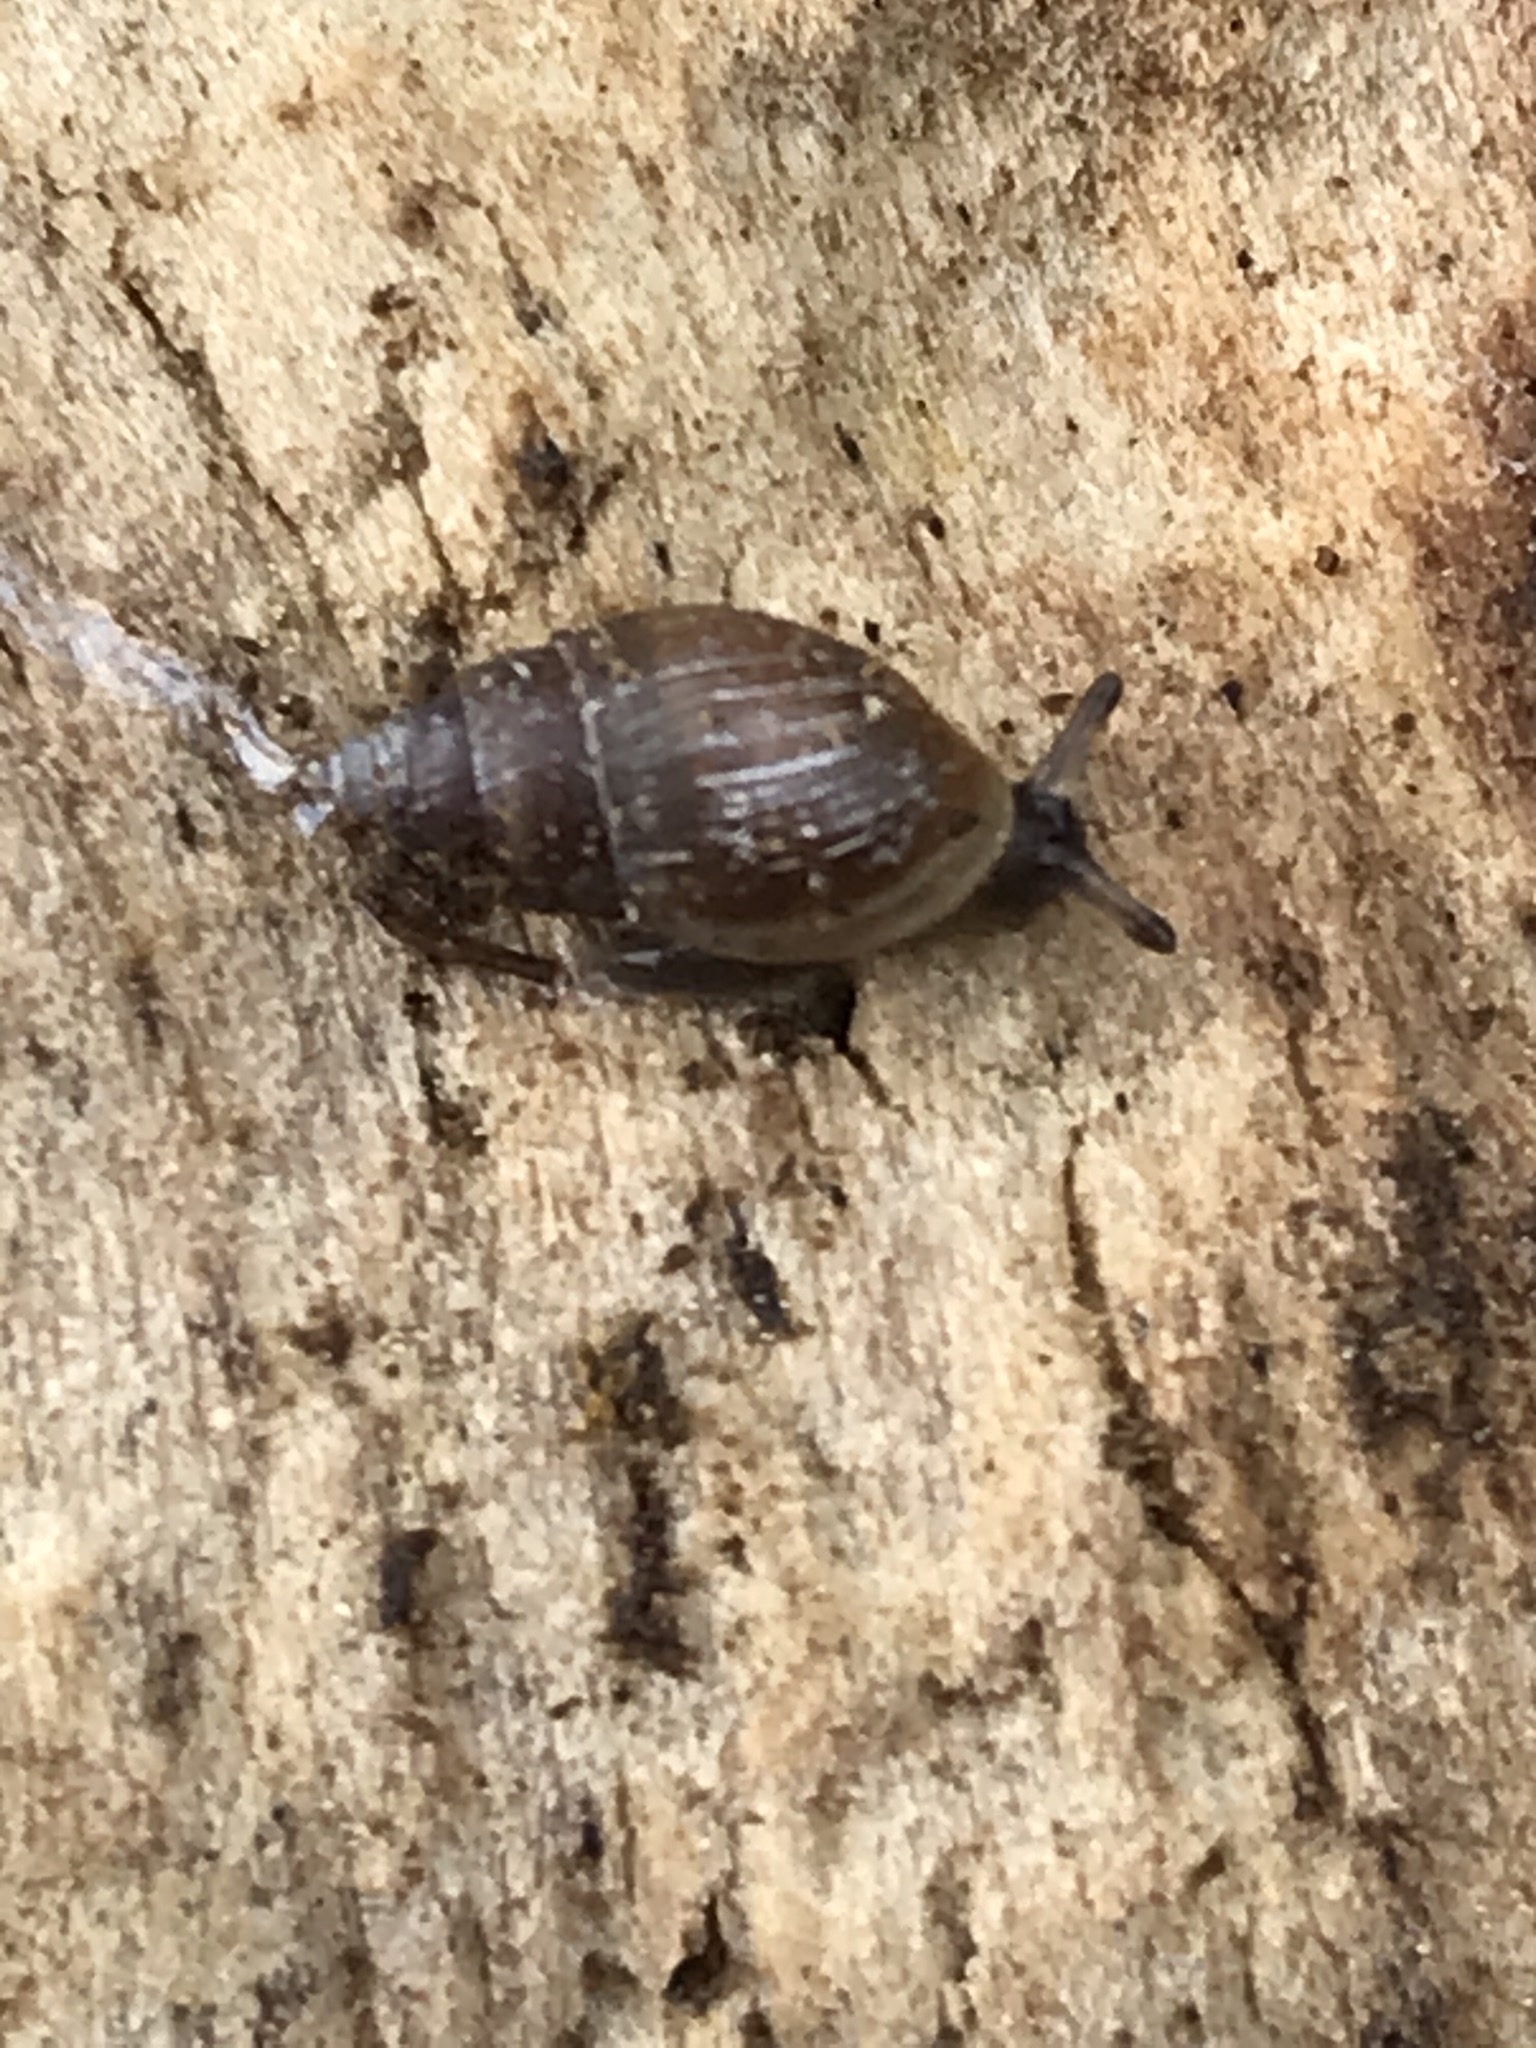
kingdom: Animalia
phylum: Mollusca
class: Gastropoda
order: Ellobiida
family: Ellobiidae
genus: Myosotella
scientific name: Myosotella myosotis
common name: Mouse-eared snail
